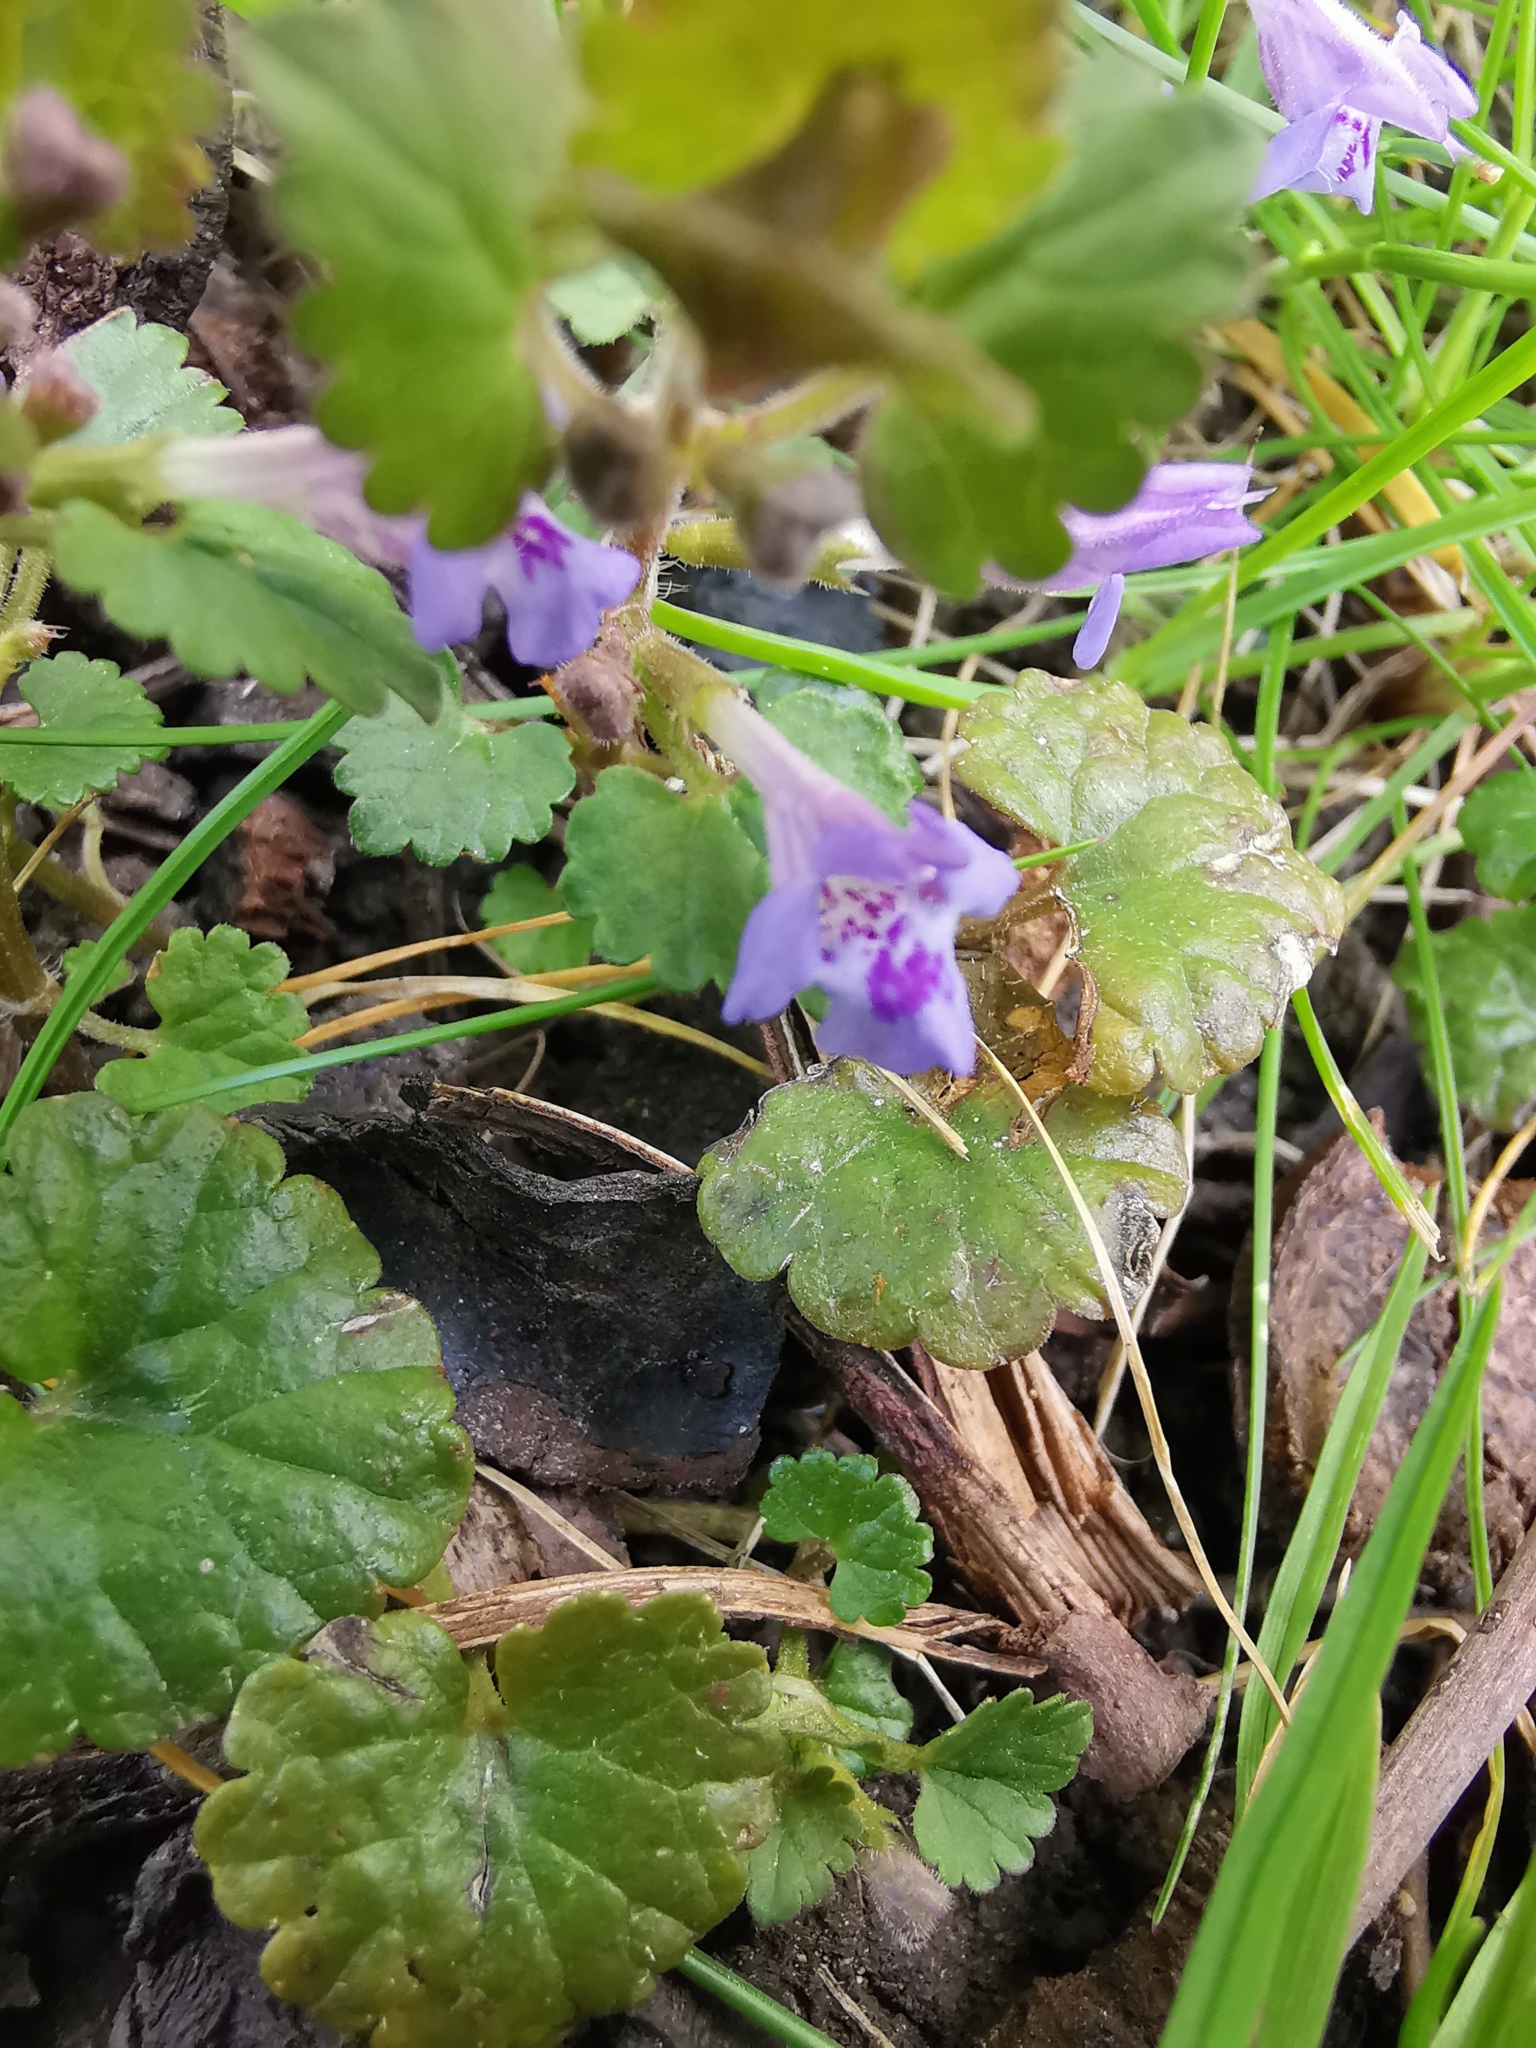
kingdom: Plantae
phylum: Tracheophyta
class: Magnoliopsida
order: Lamiales
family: Lamiaceae
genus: Glechoma
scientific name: Glechoma hederacea
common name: Ground ivy
